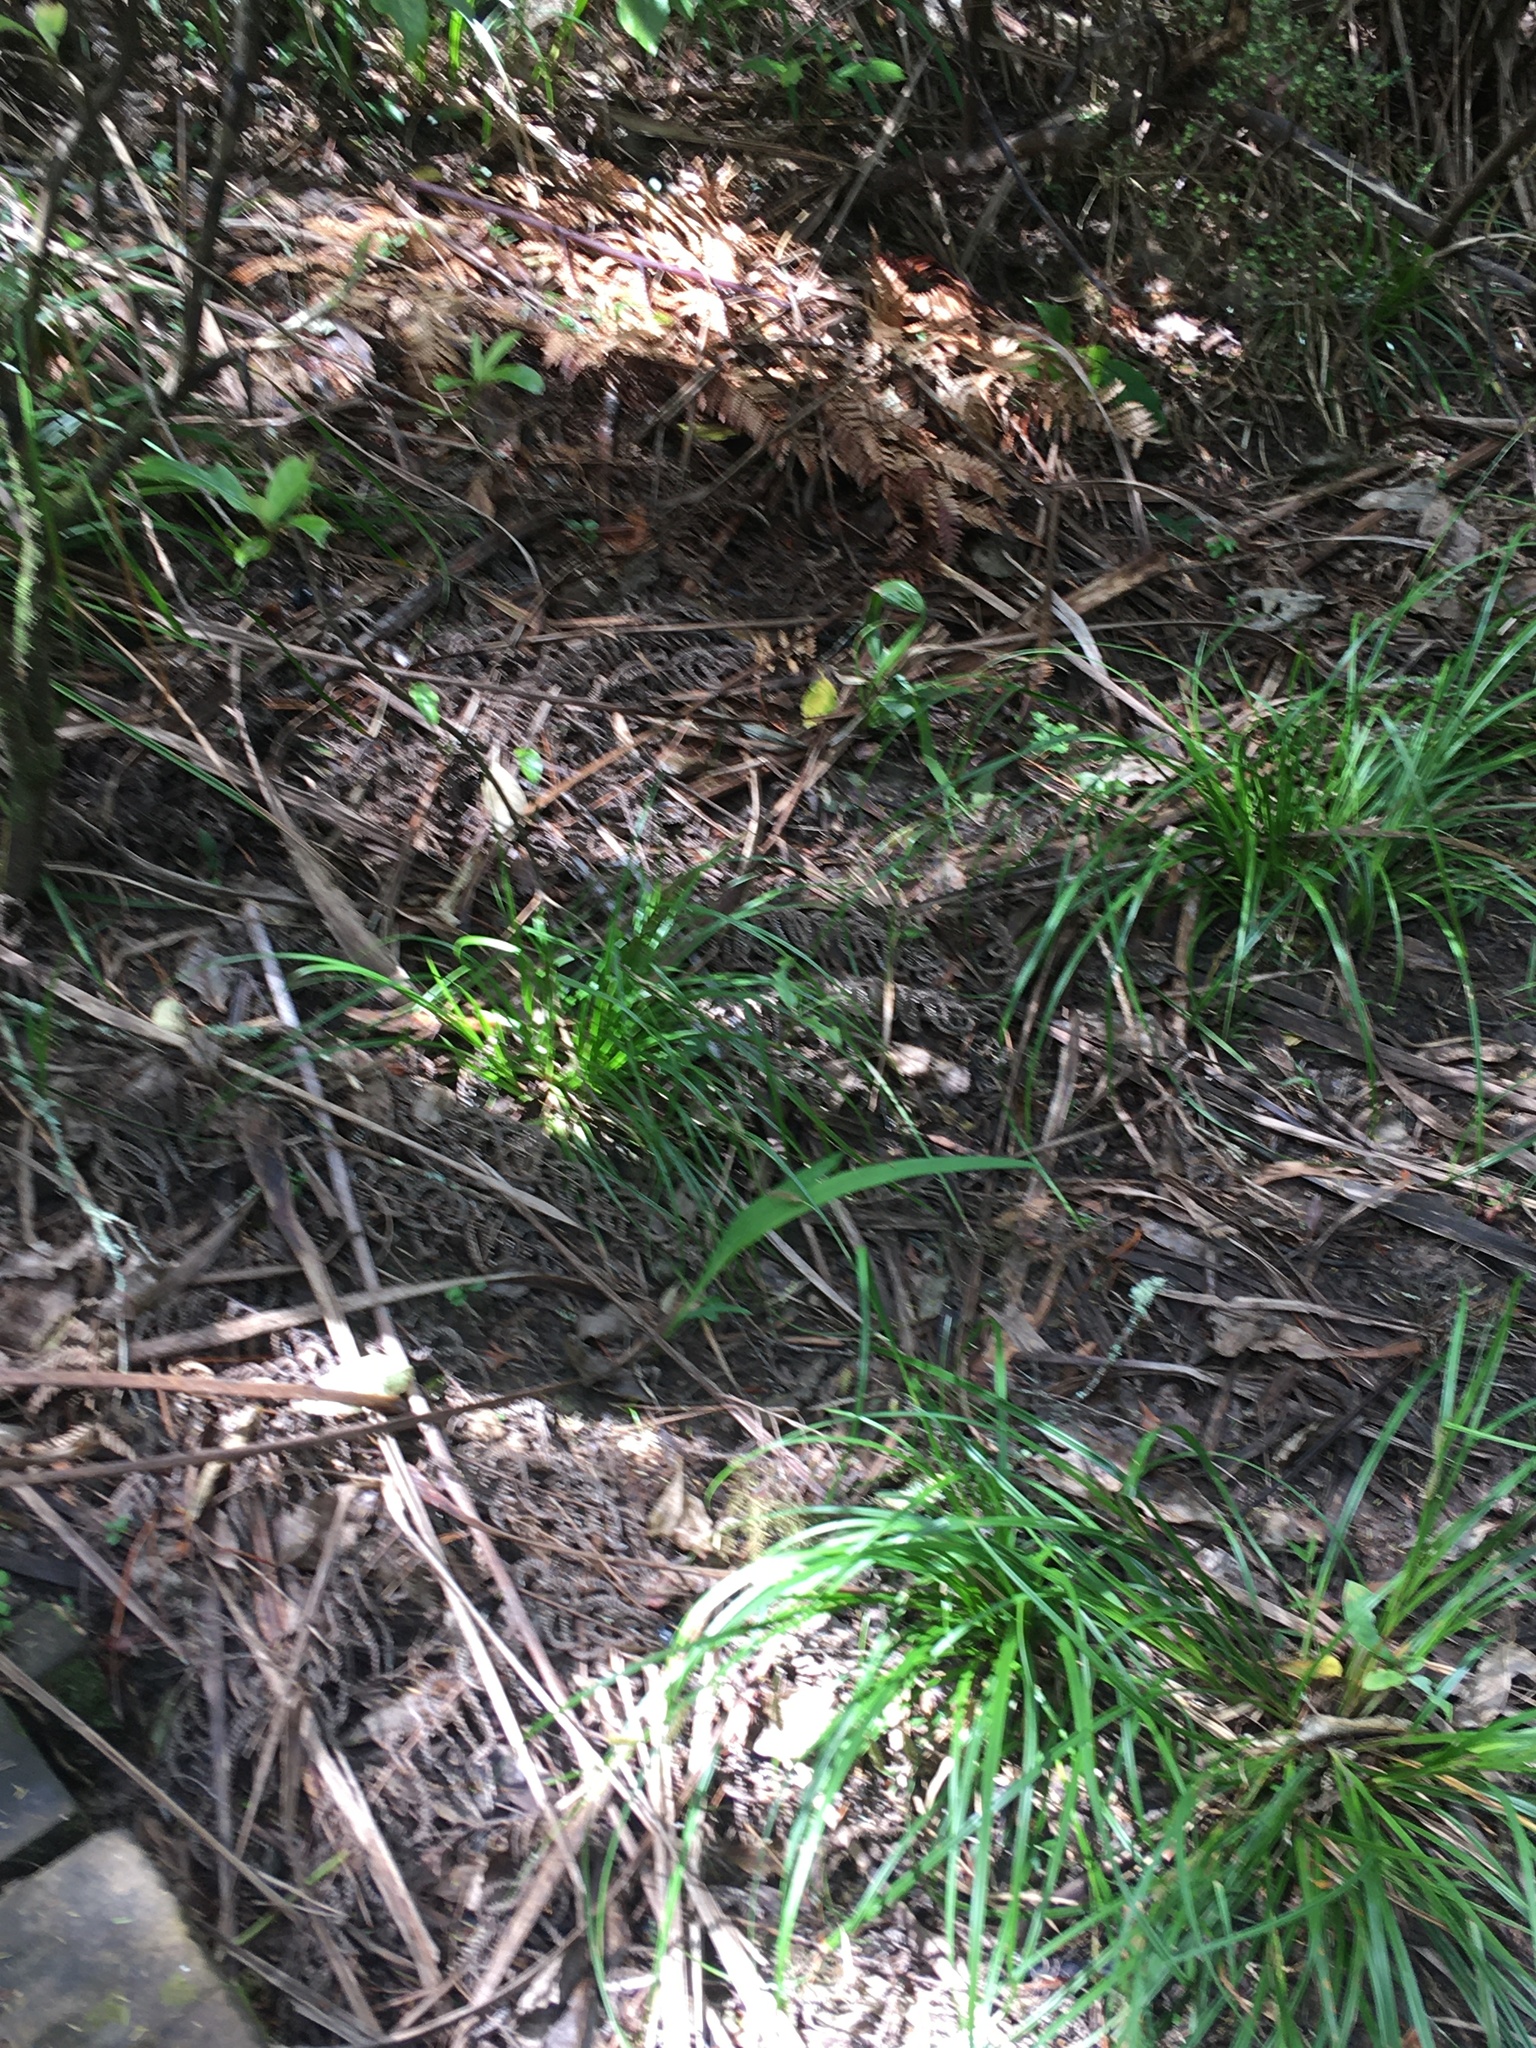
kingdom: Plantae
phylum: Tracheophyta
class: Liliopsida
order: Asparagales
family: Iridaceae
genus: Crocosmia
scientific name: Crocosmia crocosmiiflora
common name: Montbretia
